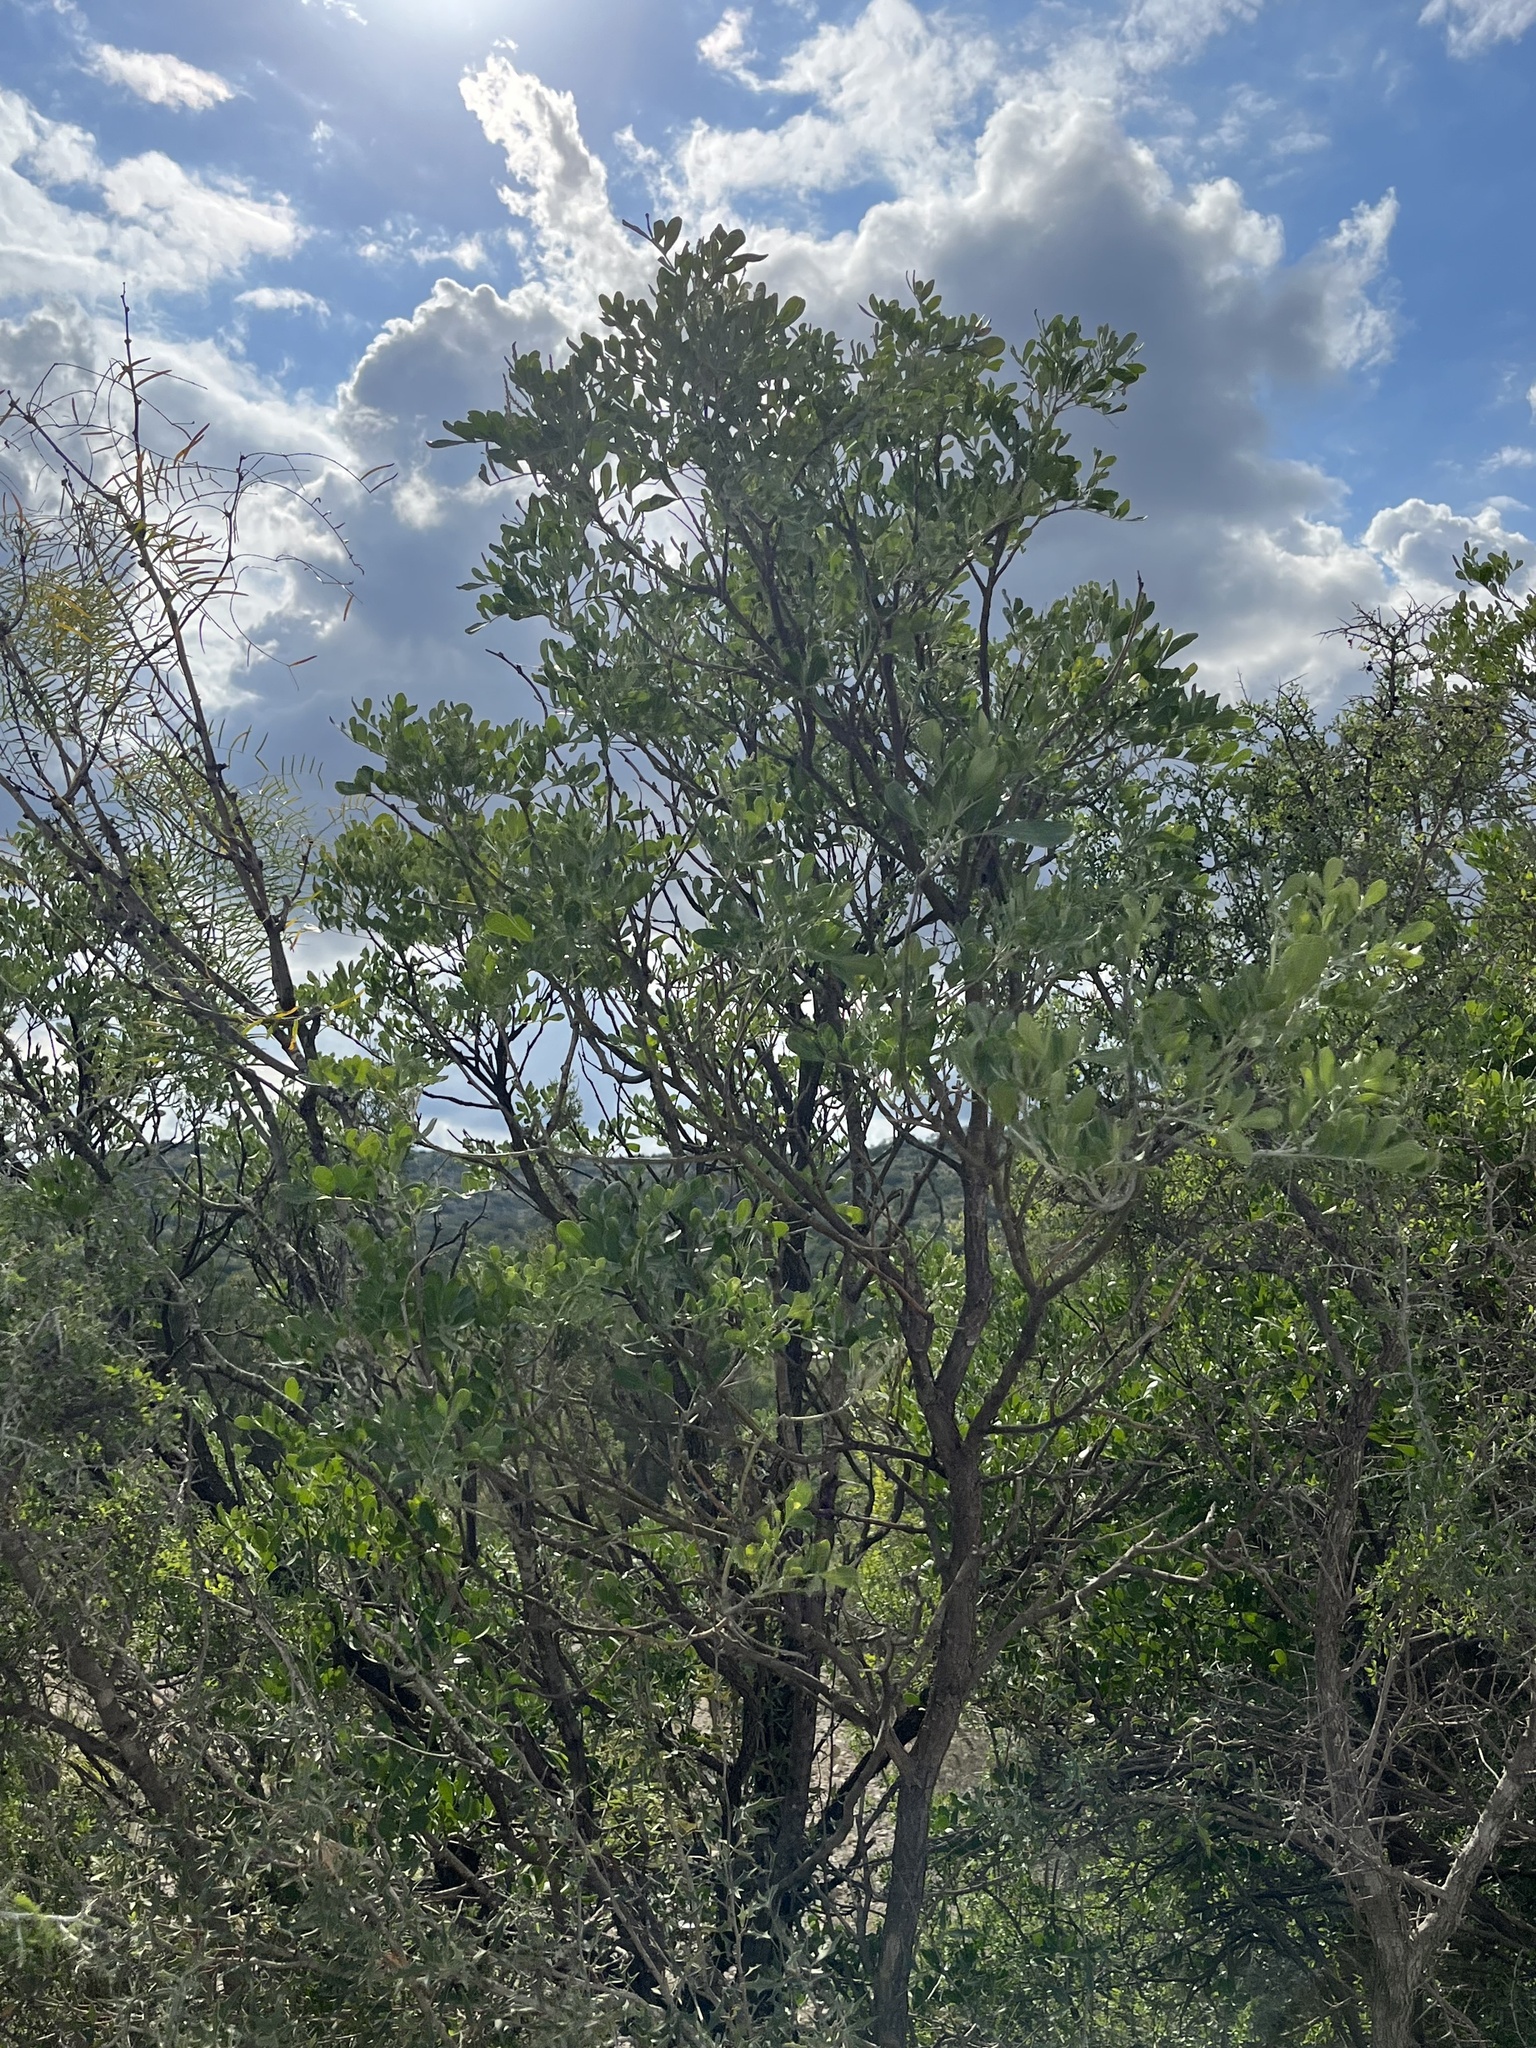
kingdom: Plantae
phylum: Tracheophyta
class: Magnoliopsida
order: Fabales
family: Fabaceae
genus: Dermatophyllum
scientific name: Dermatophyllum secundiflorum
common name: Texas-mountain-laurel
